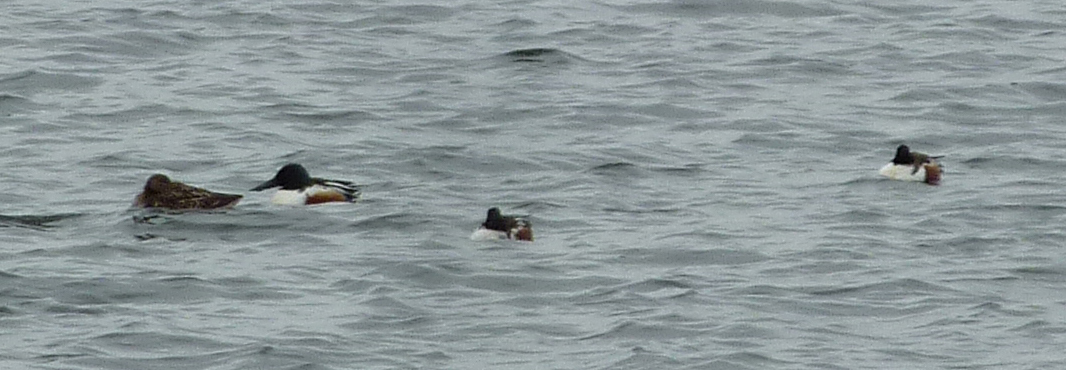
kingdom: Animalia
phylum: Chordata
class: Aves
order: Anseriformes
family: Anatidae
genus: Spatula
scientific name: Spatula clypeata
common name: Northern shoveler
